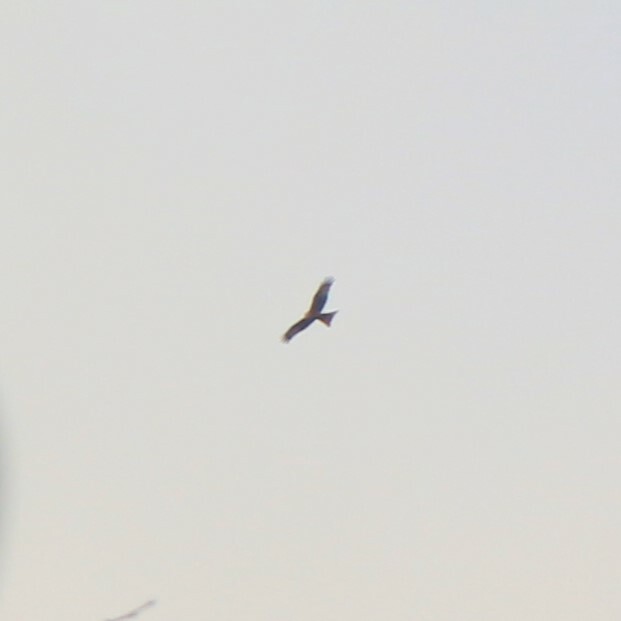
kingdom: Animalia
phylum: Chordata
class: Aves
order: Accipitriformes
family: Accipitridae
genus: Milvus
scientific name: Milvus milvus
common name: Red kite
